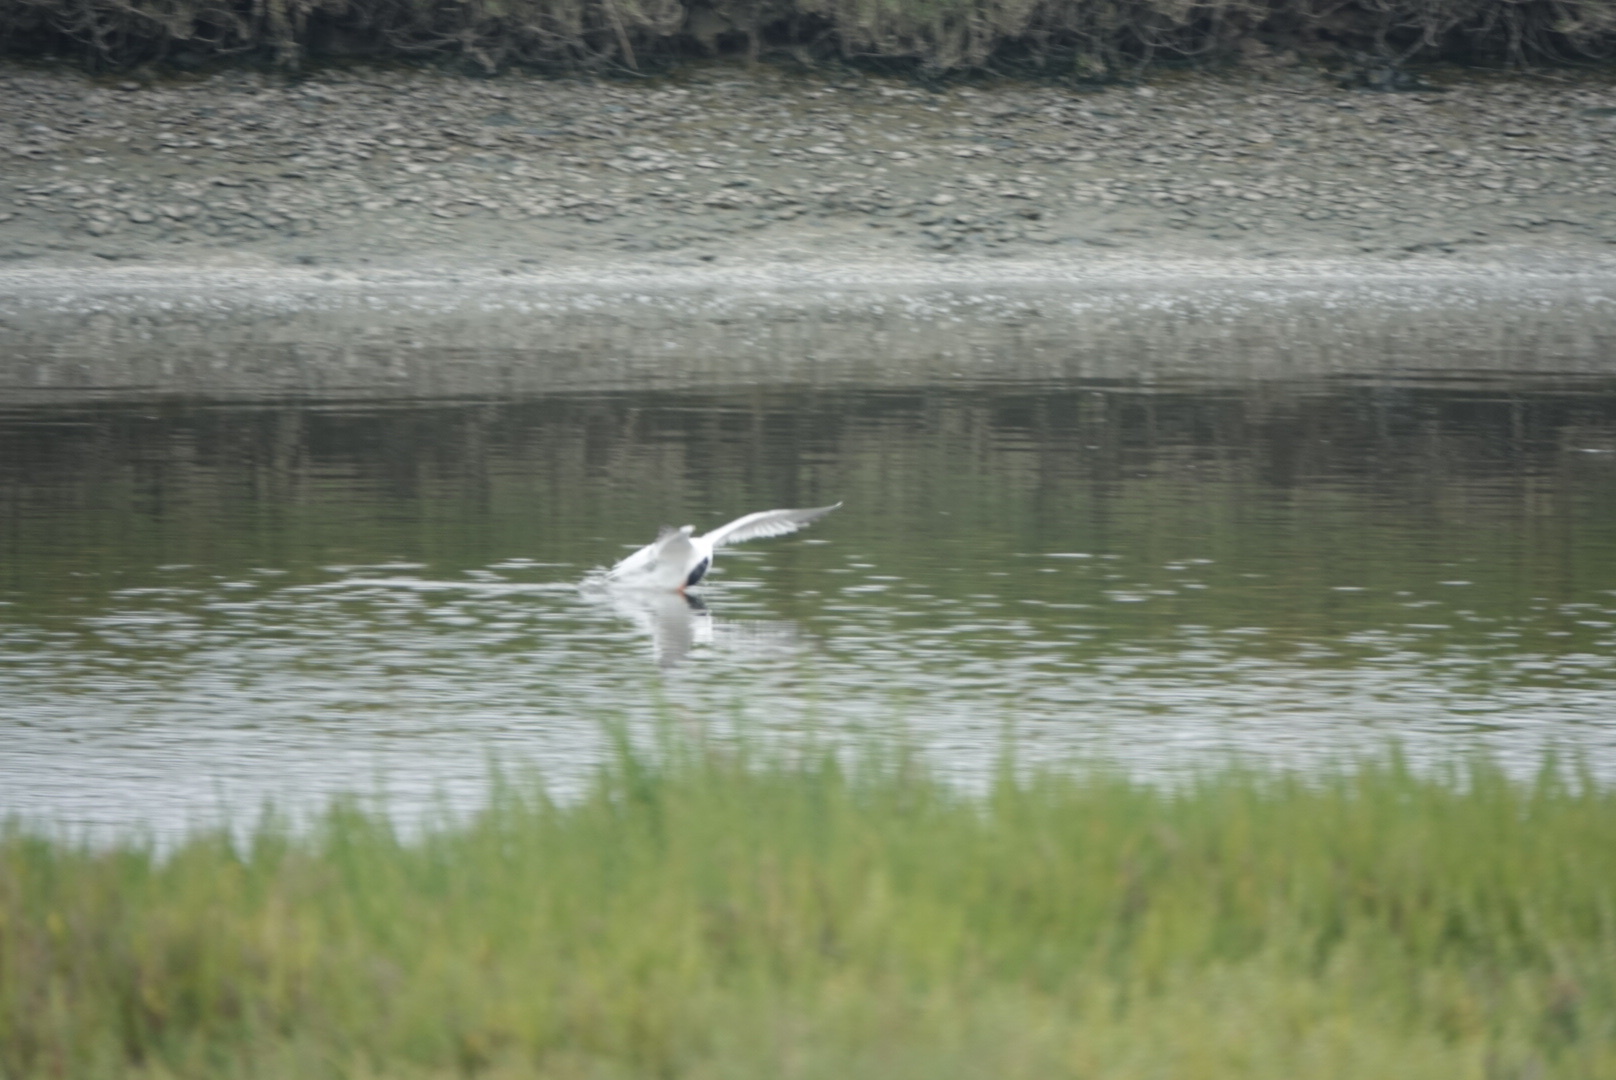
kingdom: Animalia
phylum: Chordata
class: Aves
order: Charadriiformes
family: Laridae
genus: Hydroprogne
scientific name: Hydroprogne caspia
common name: Caspian tern
